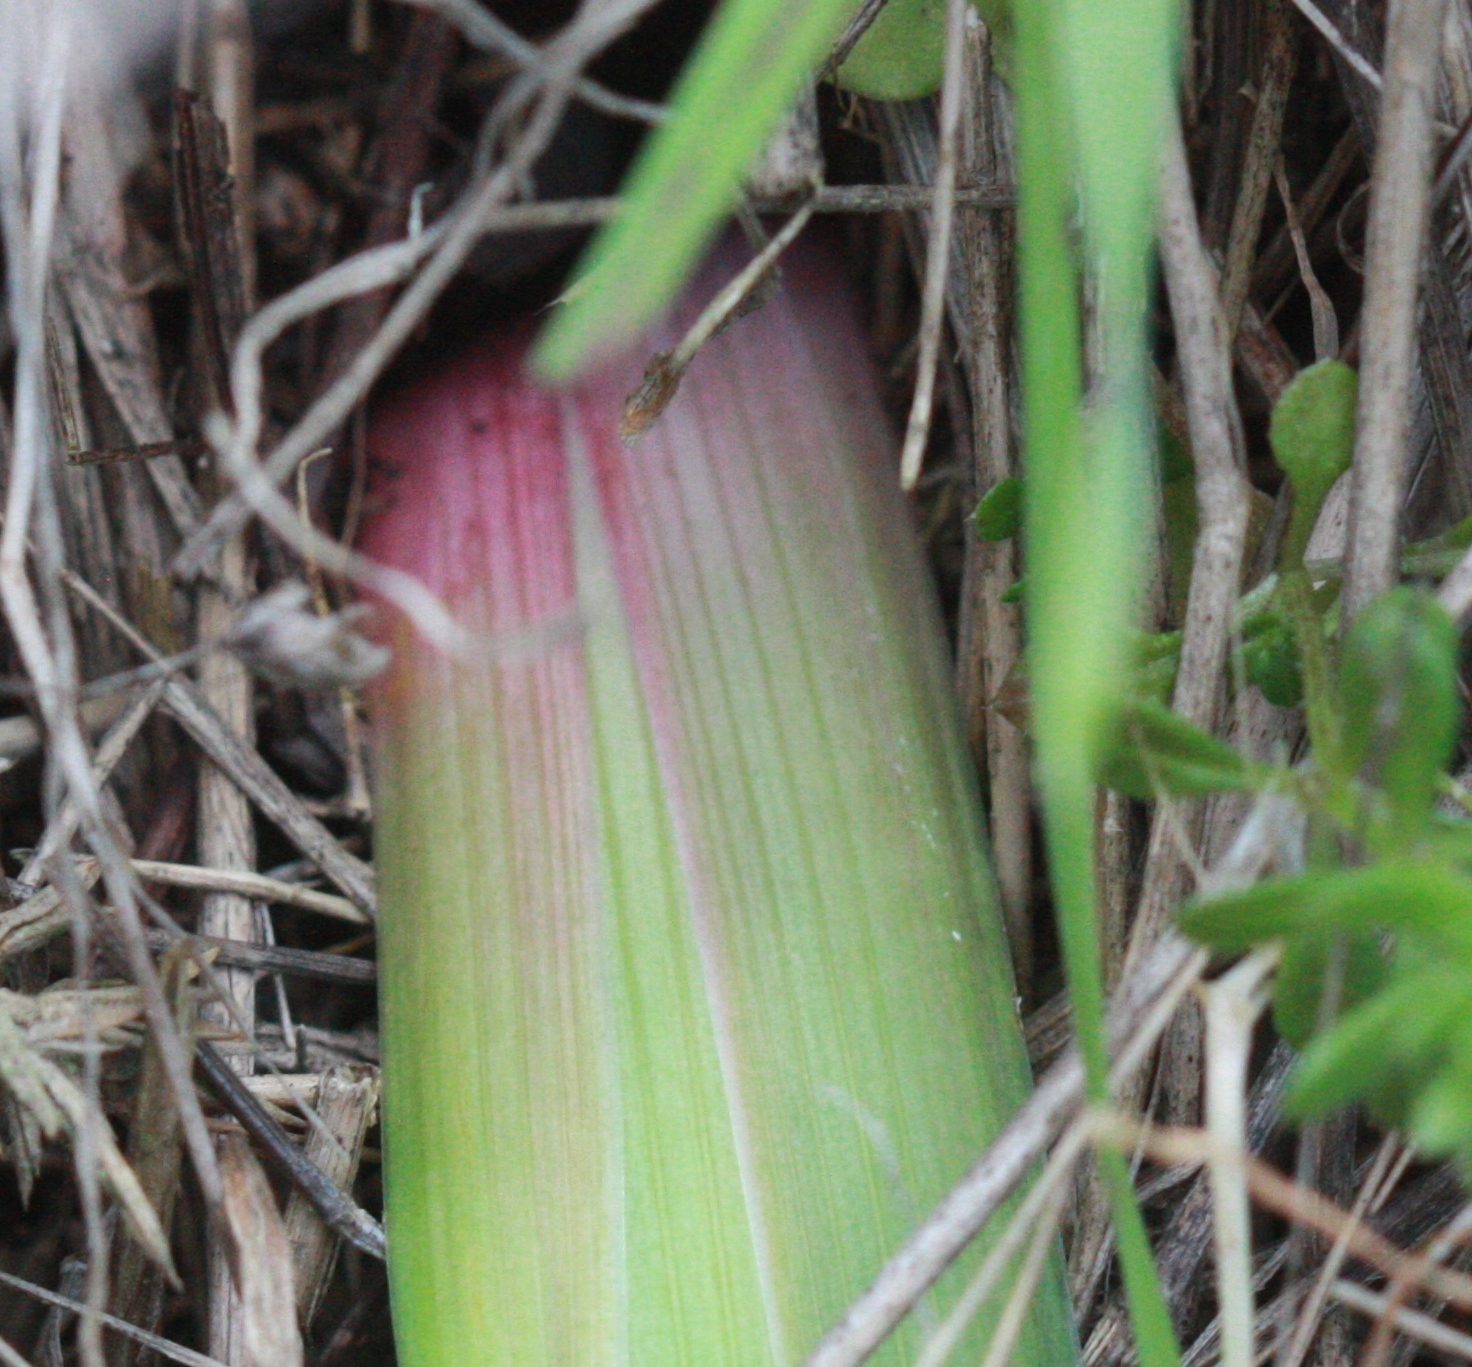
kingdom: Plantae
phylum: Tracheophyta
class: Liliopsida
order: Asparagales
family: Iridaceae
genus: Iris
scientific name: Iris douglasiana
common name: Marin iris
